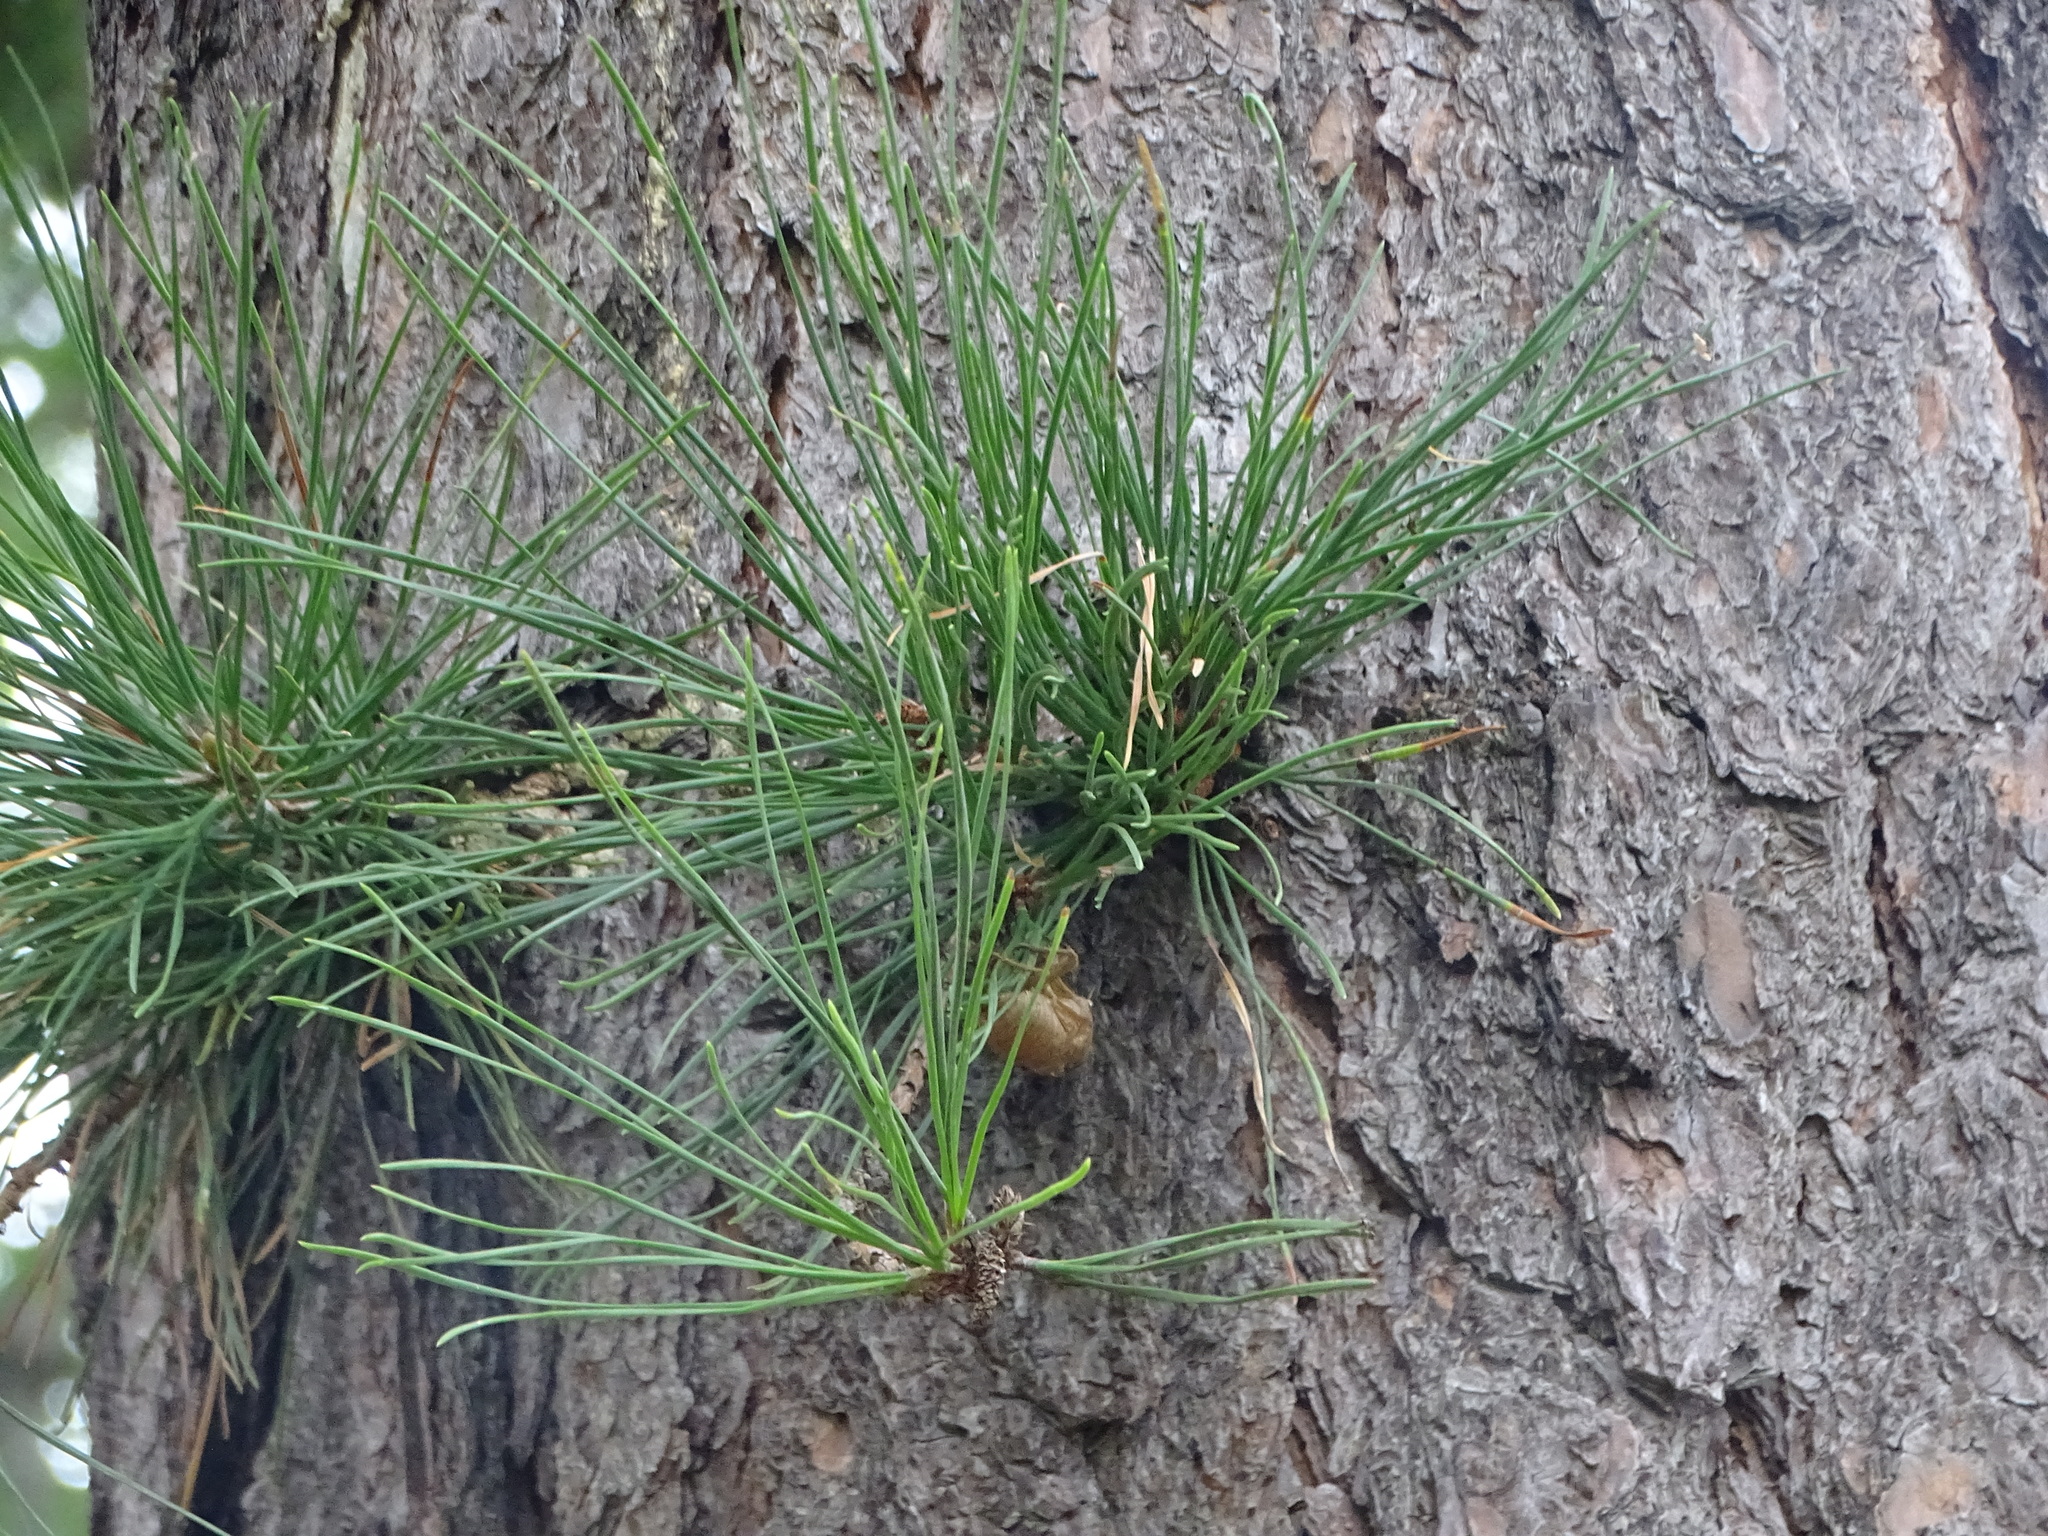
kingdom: Plantae
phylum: Tracheophyta
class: Pinopsida
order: Pinales
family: Pinaceae
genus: Pinus
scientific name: Pinus rigida
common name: Pitch pine
